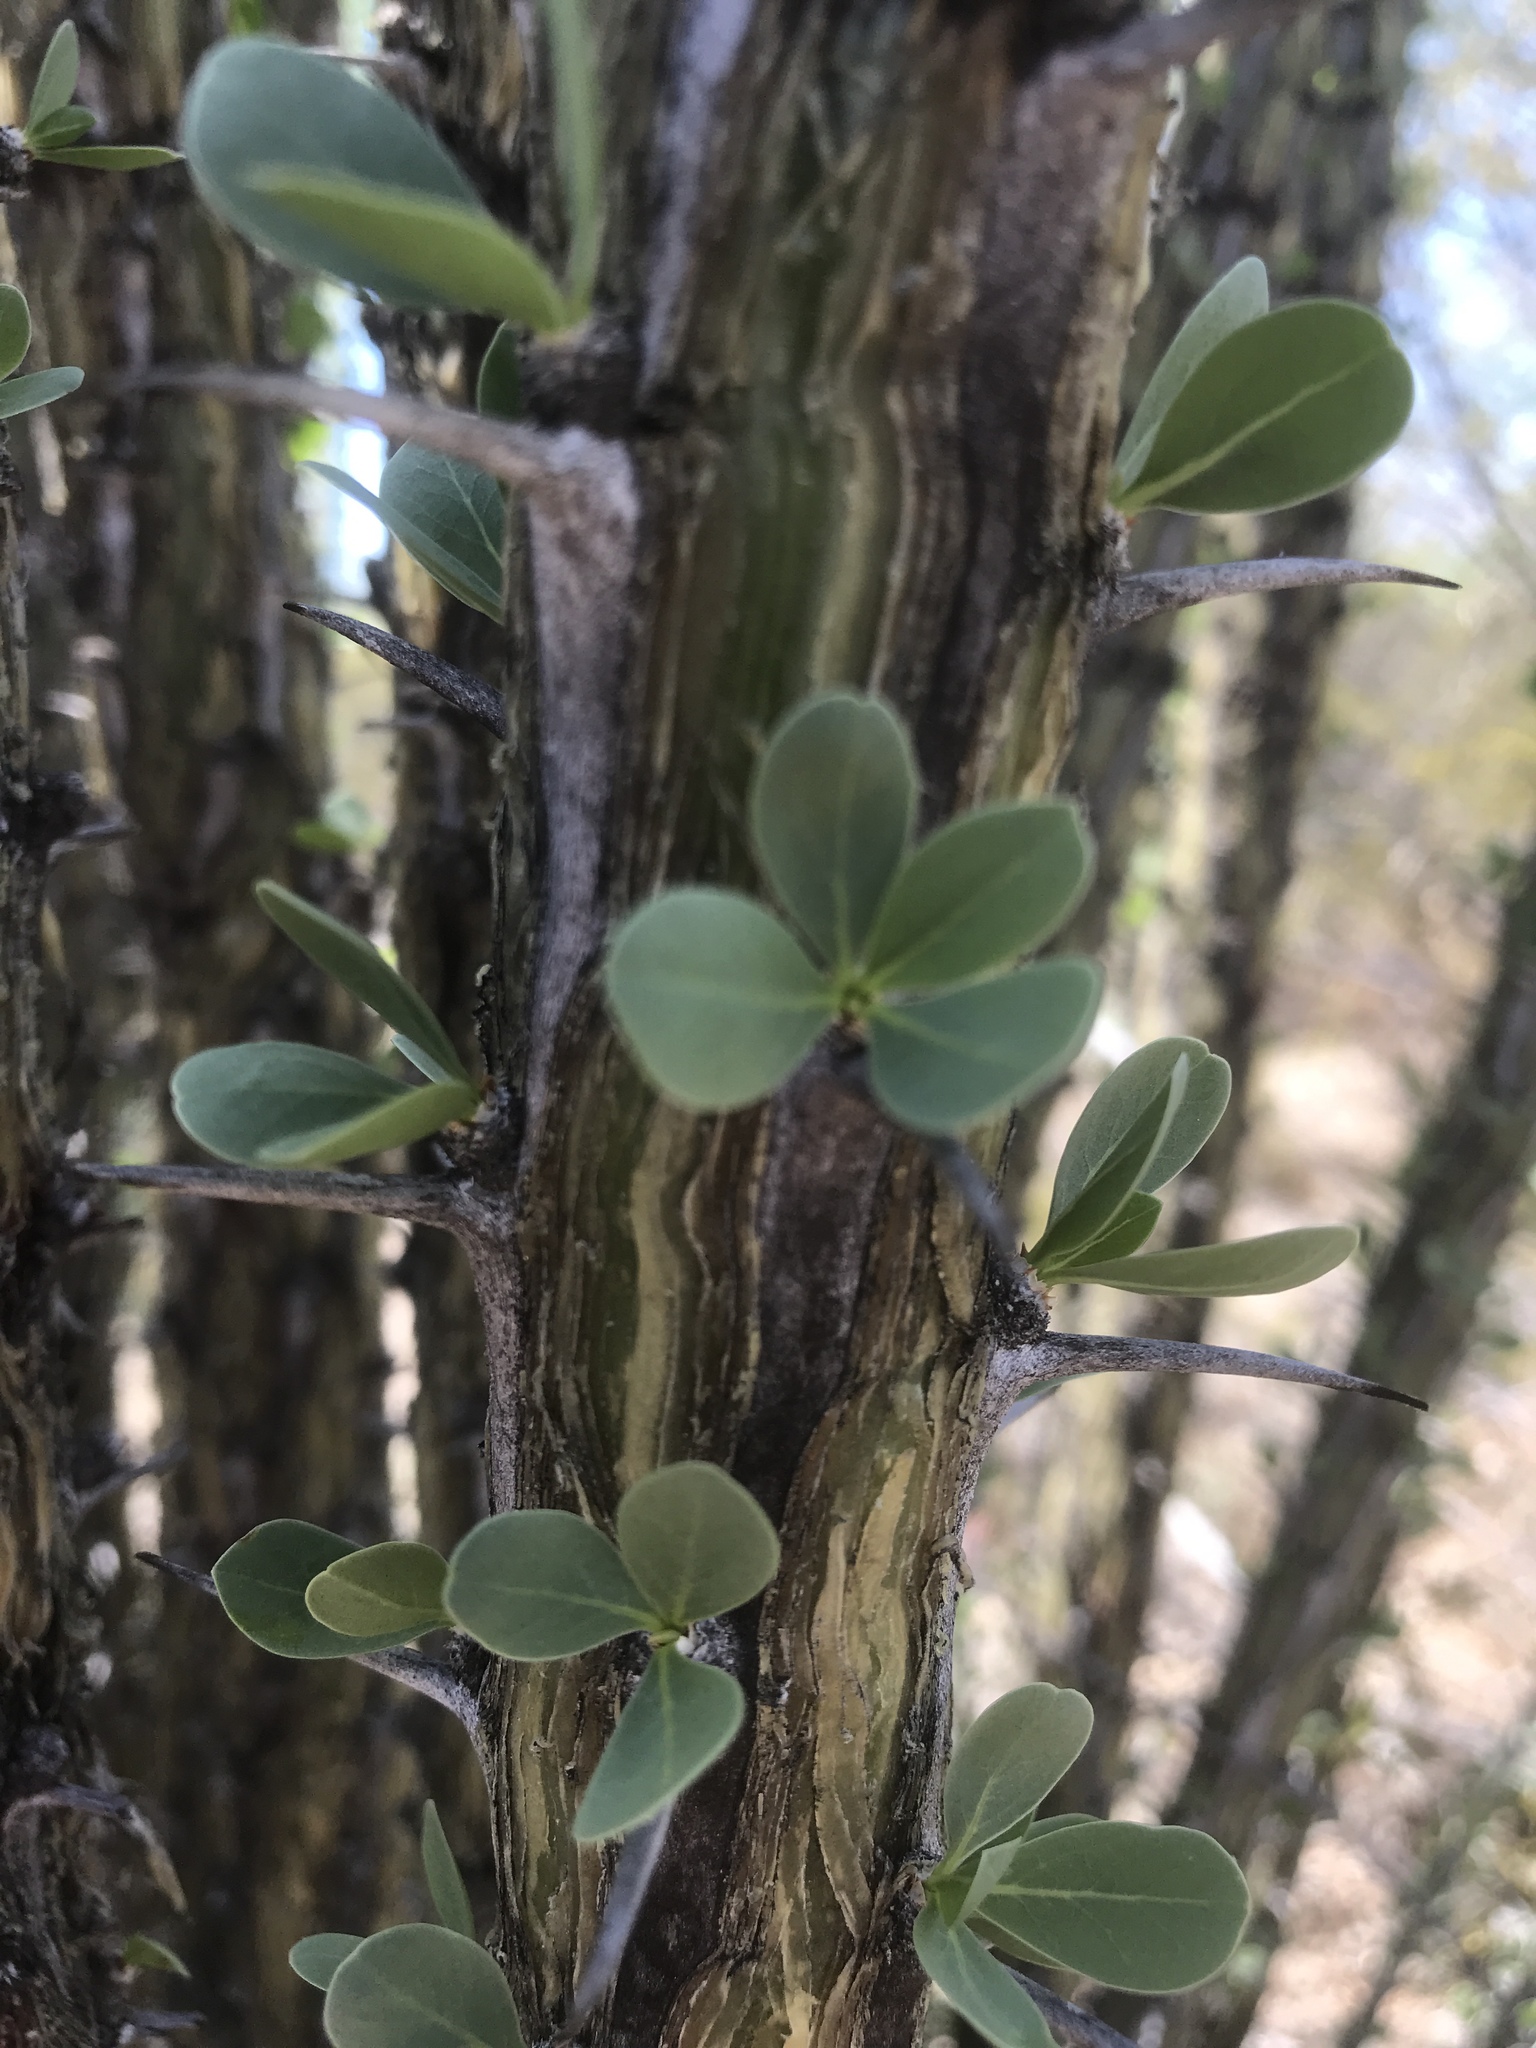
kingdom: Plantae
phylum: Tracheophyta
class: Magnoliopsida
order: Ericales
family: Fouquieriaceae
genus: Fouquieria
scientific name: Fouquieria splendens
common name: Vine-cactus
